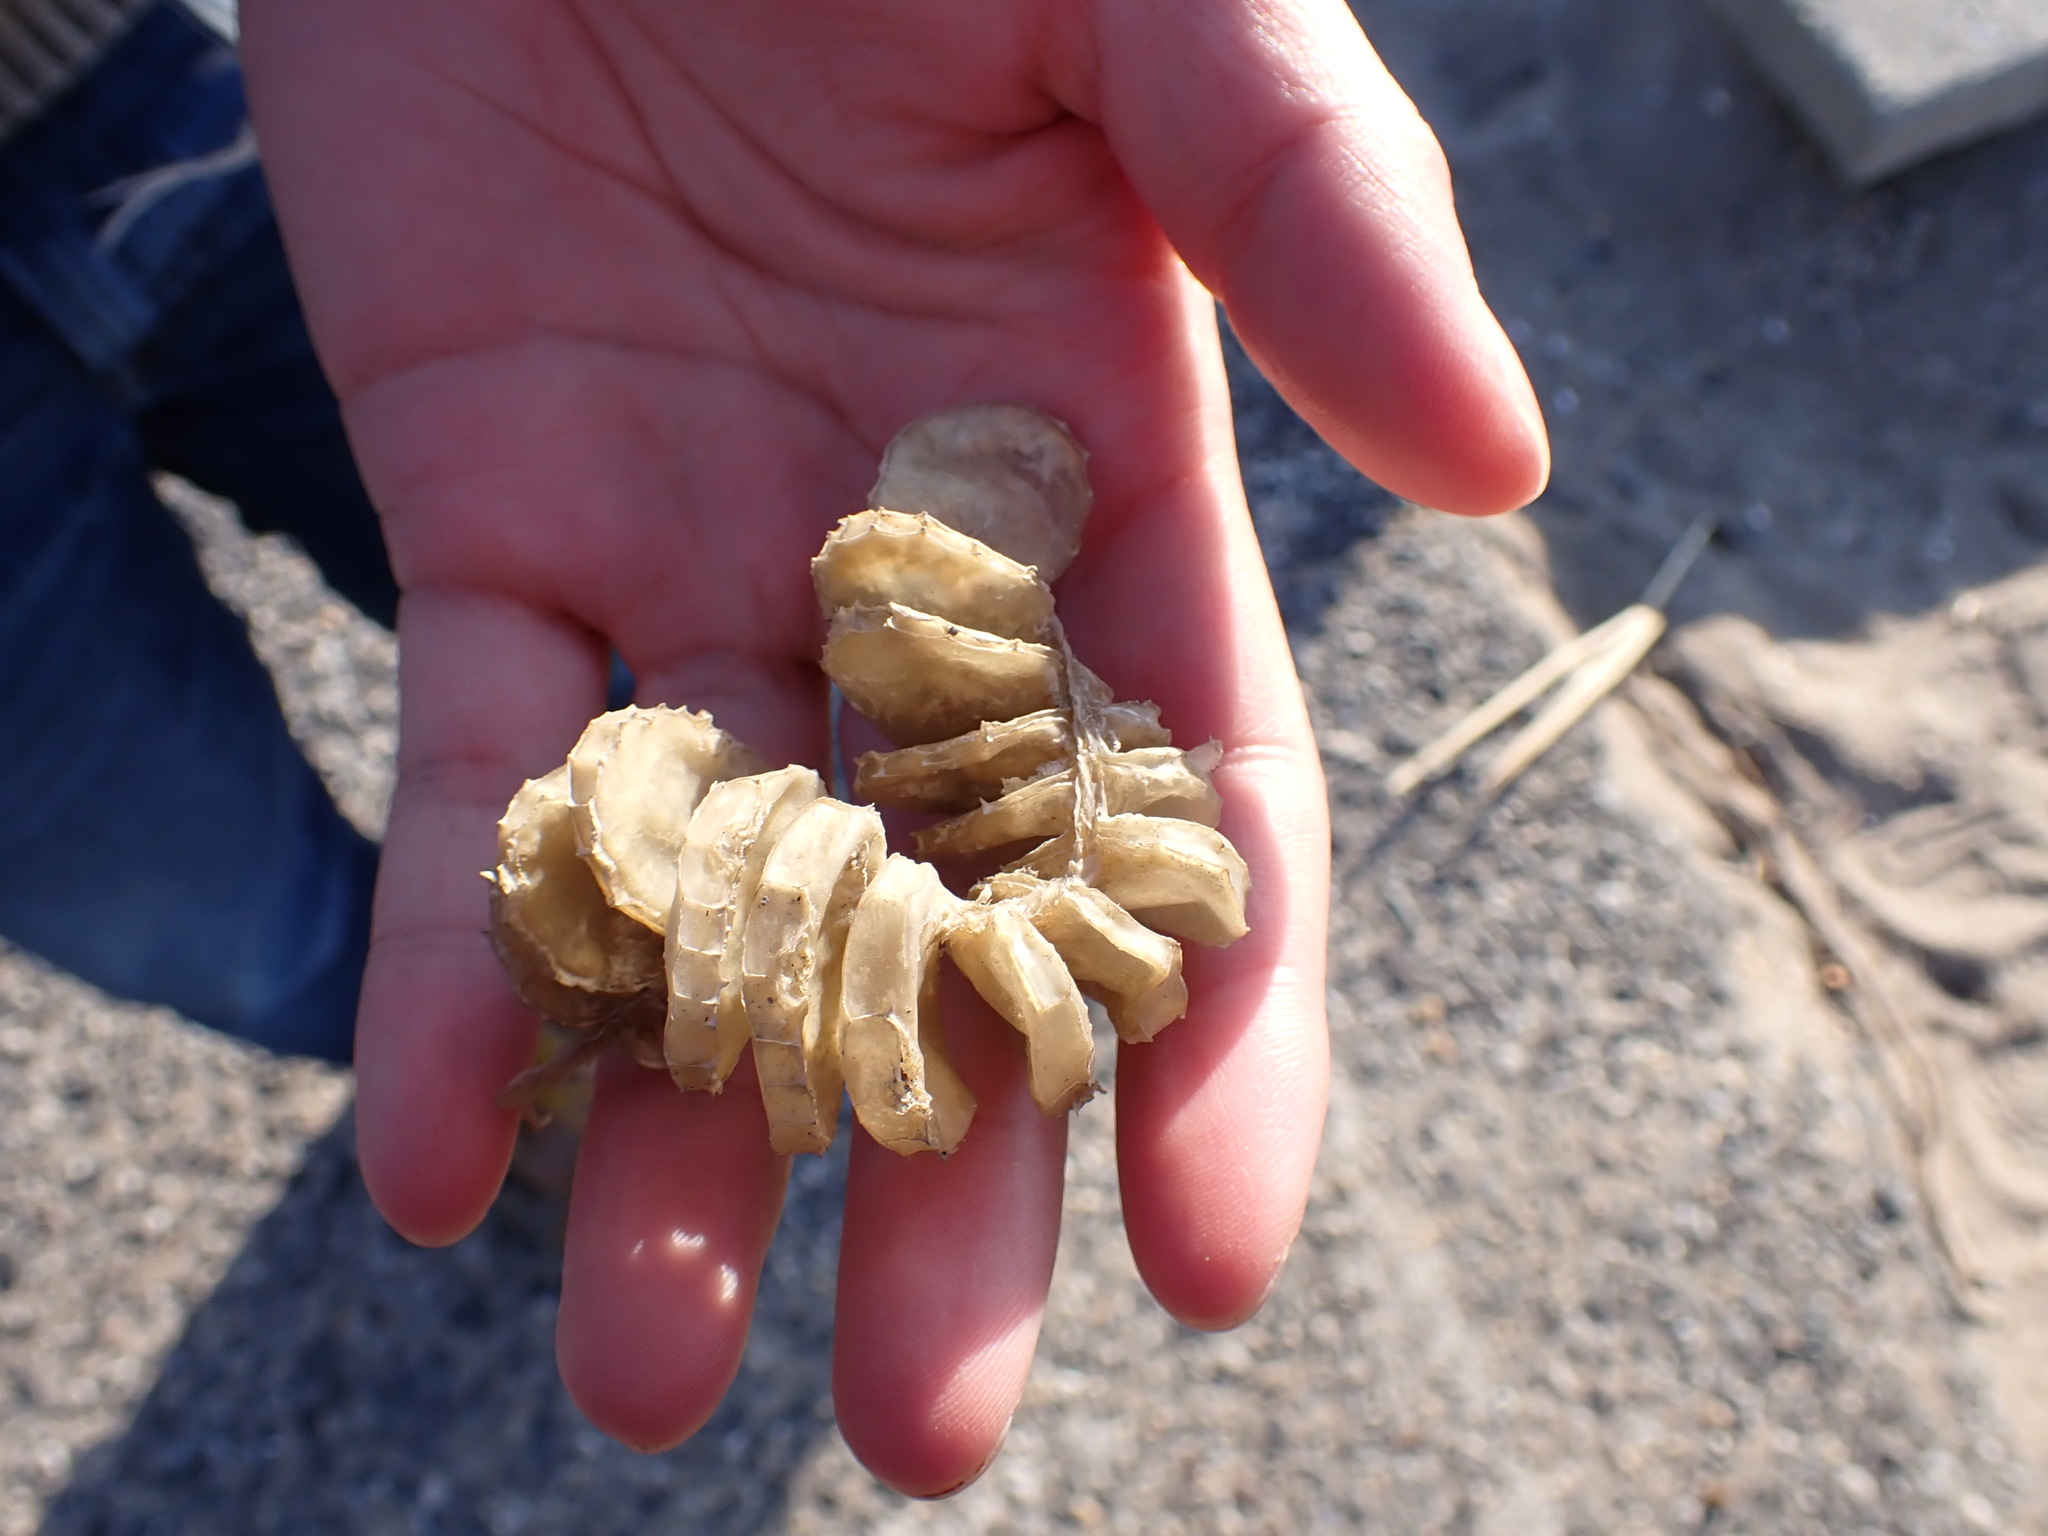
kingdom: Animalia
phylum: Mollusca
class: Gastropoda
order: Neogastropoda
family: Busyconidae
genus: Busycon
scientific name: Busycon carica
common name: Knobbed whelk
